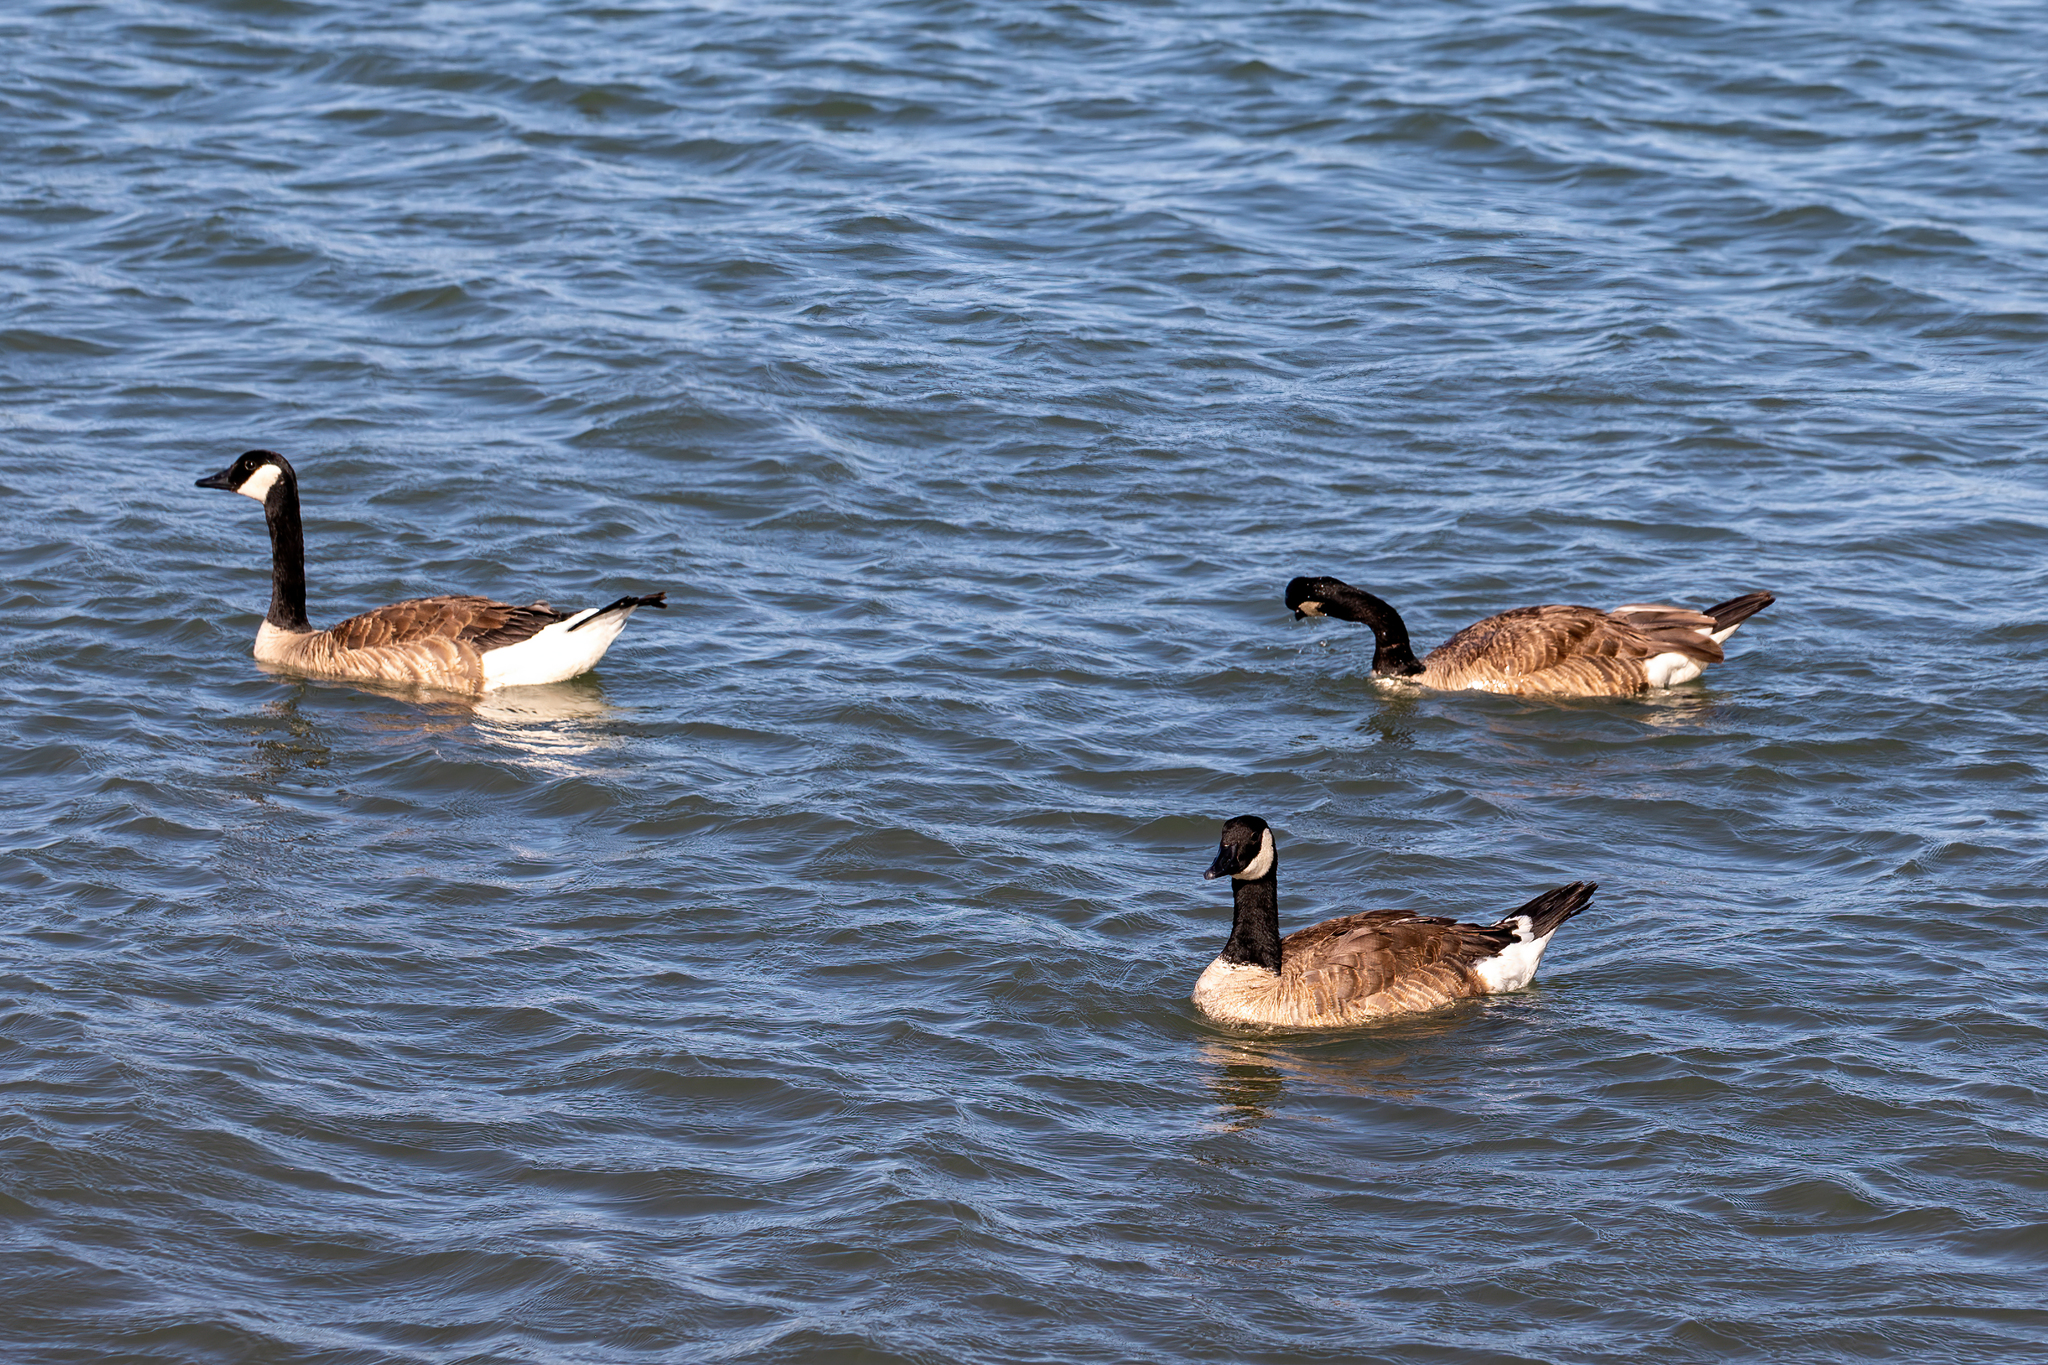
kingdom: Animalia
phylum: Chordata
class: Aves
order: Anseriformes
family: Anatidae
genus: Branta
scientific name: Branta canadensis
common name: Canada goose
